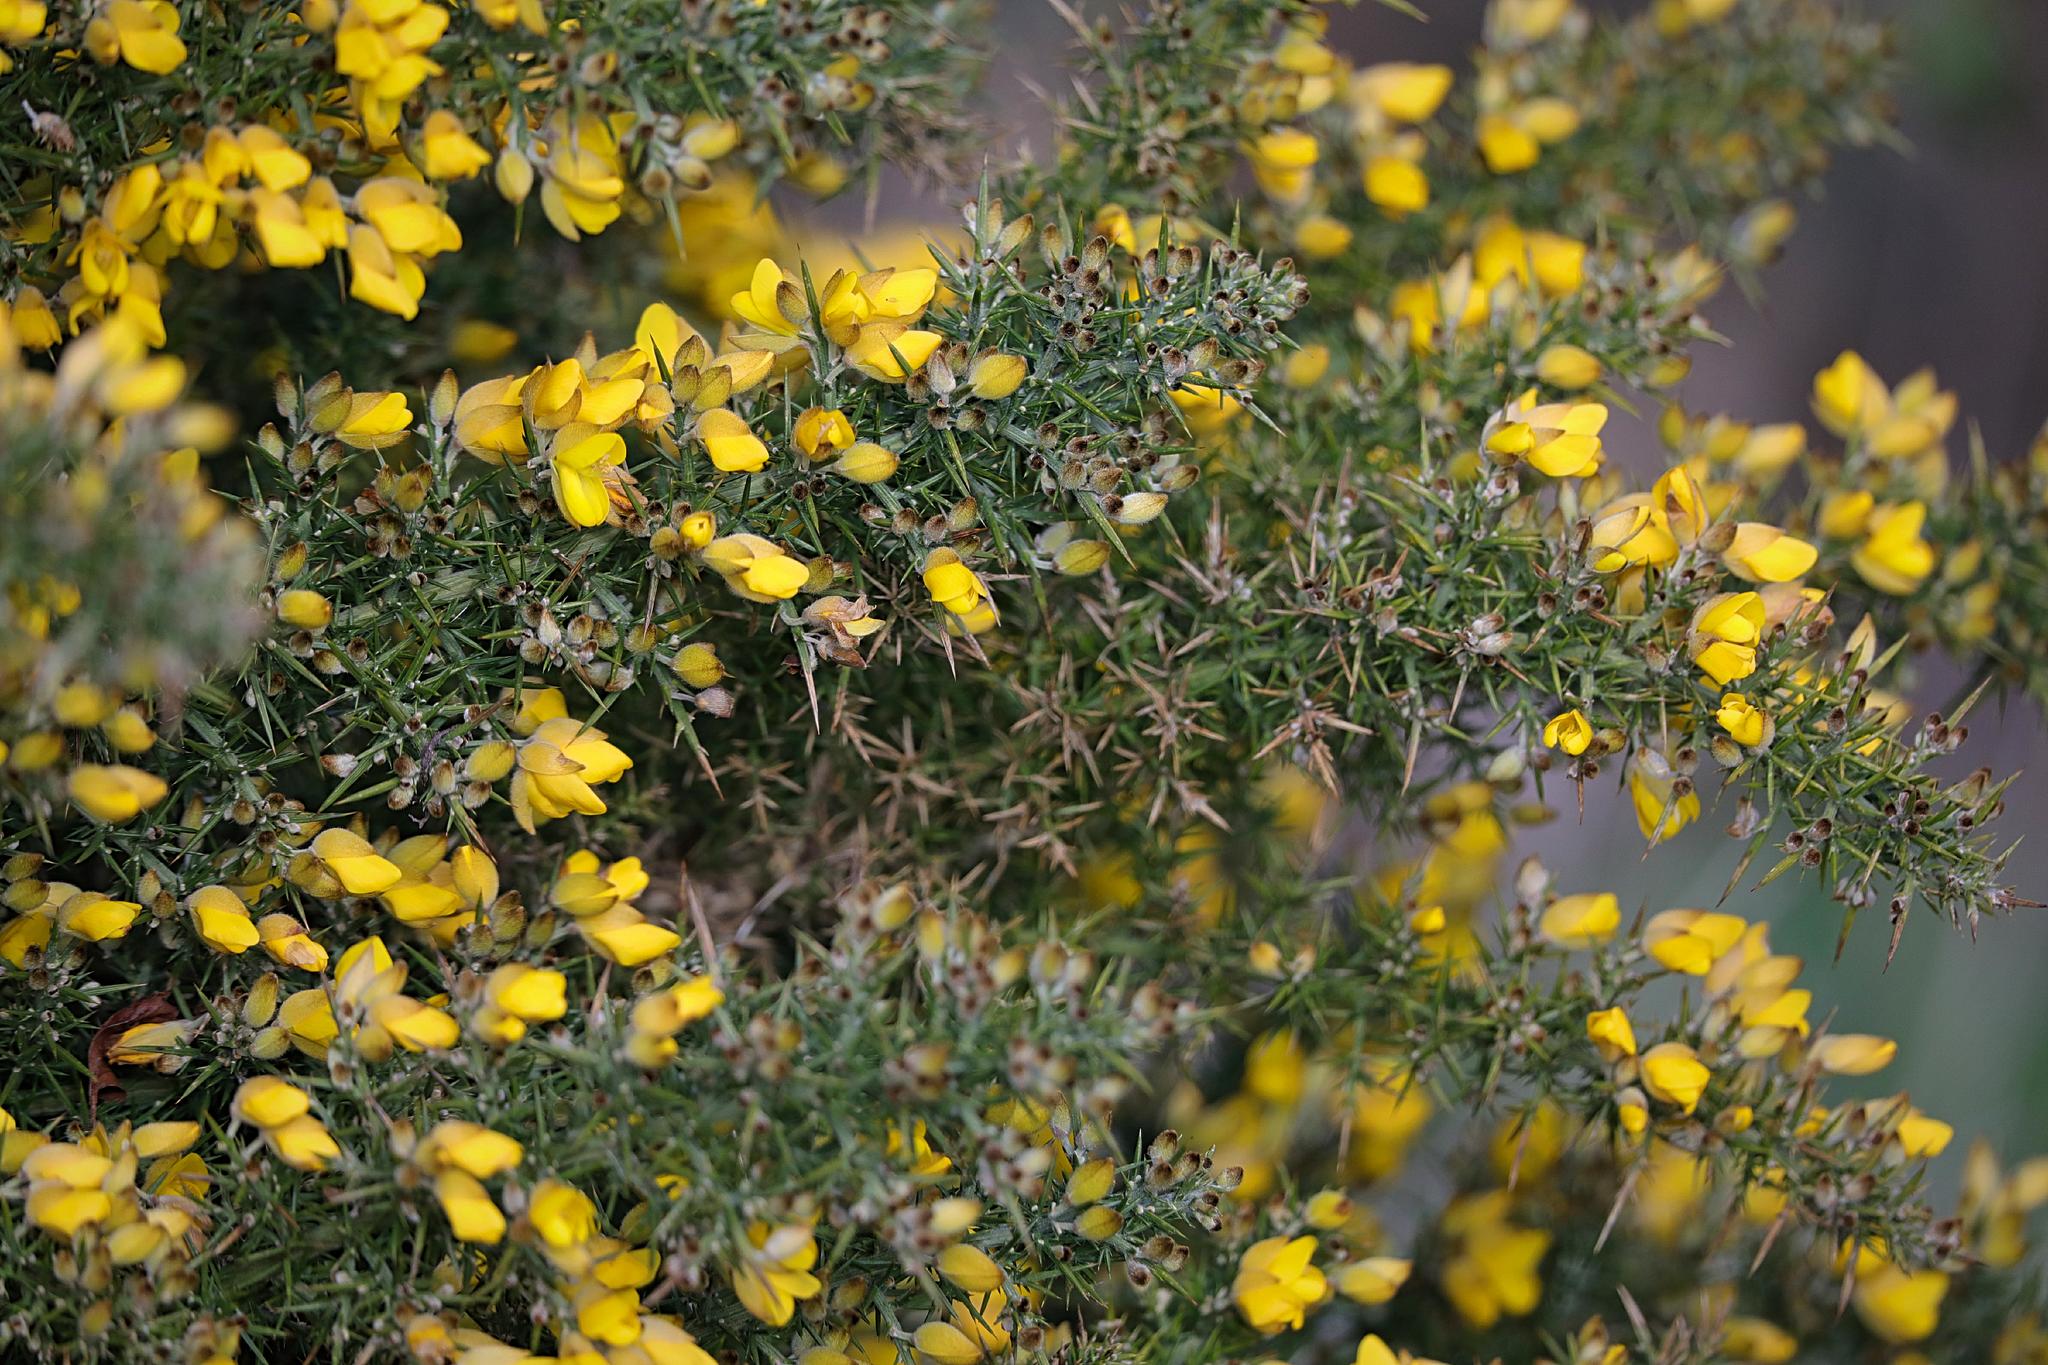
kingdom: Plantae
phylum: Tracheophyta
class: Magnoliopsida
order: Fabales
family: Fabaceae
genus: Ulex
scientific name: Ulex europaeus
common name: Common gorse
